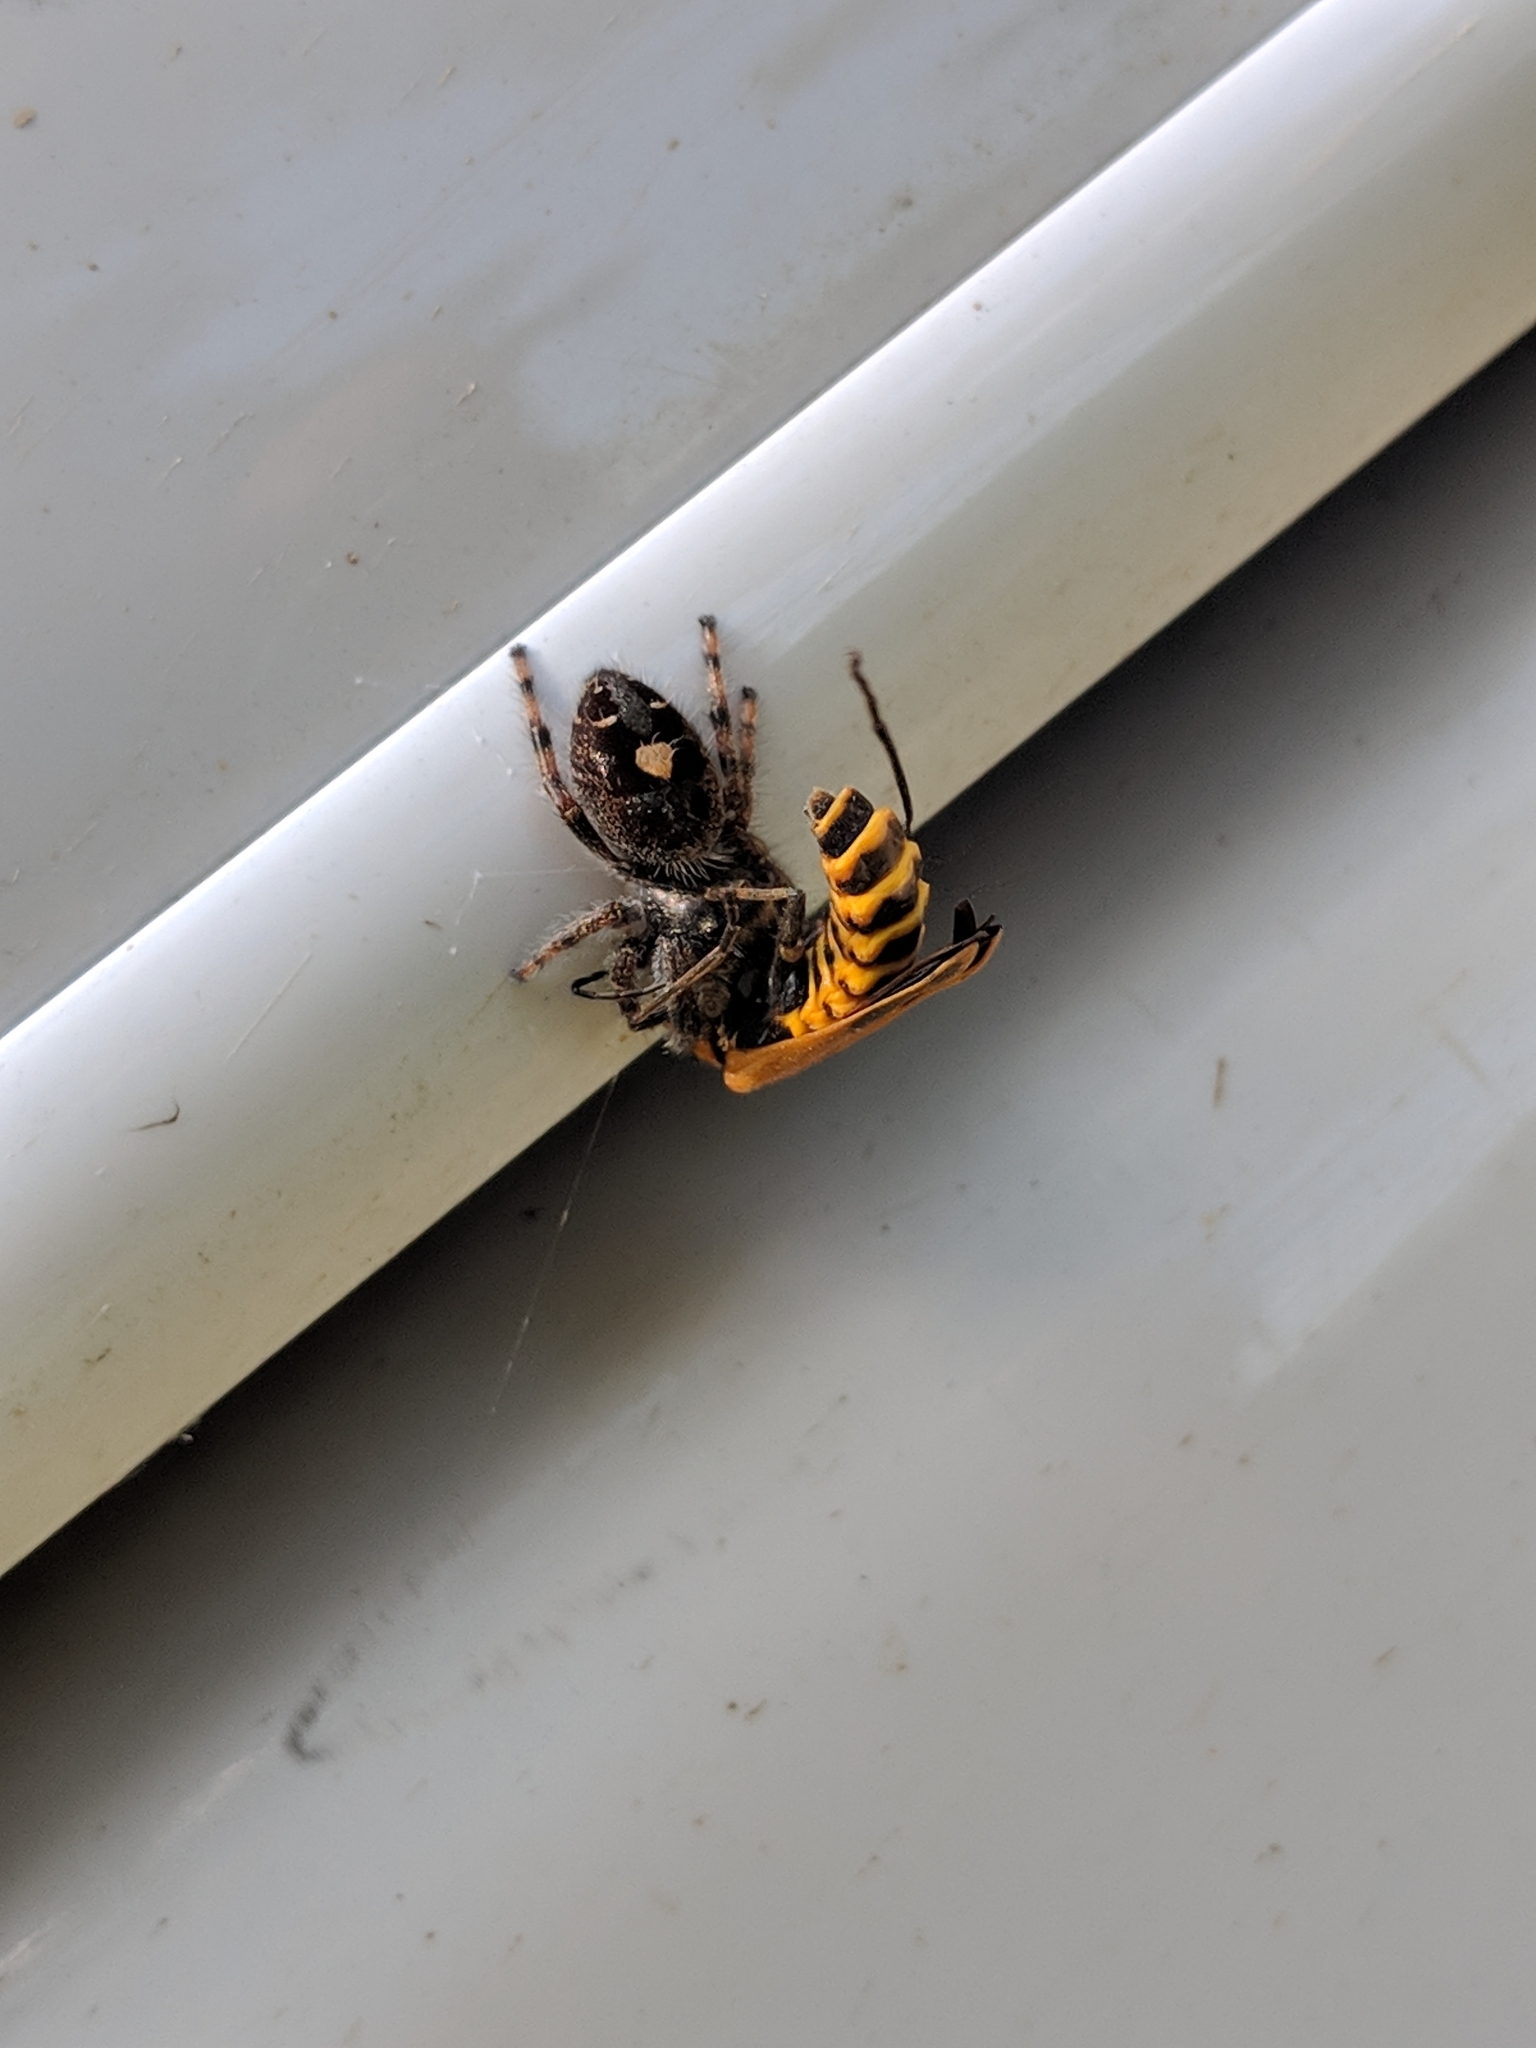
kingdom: Animalia
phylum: Arthropoda
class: Arachnida
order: Araneae
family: Salticidae
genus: Phidippus
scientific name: Phidippus audax
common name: Bold jumper
